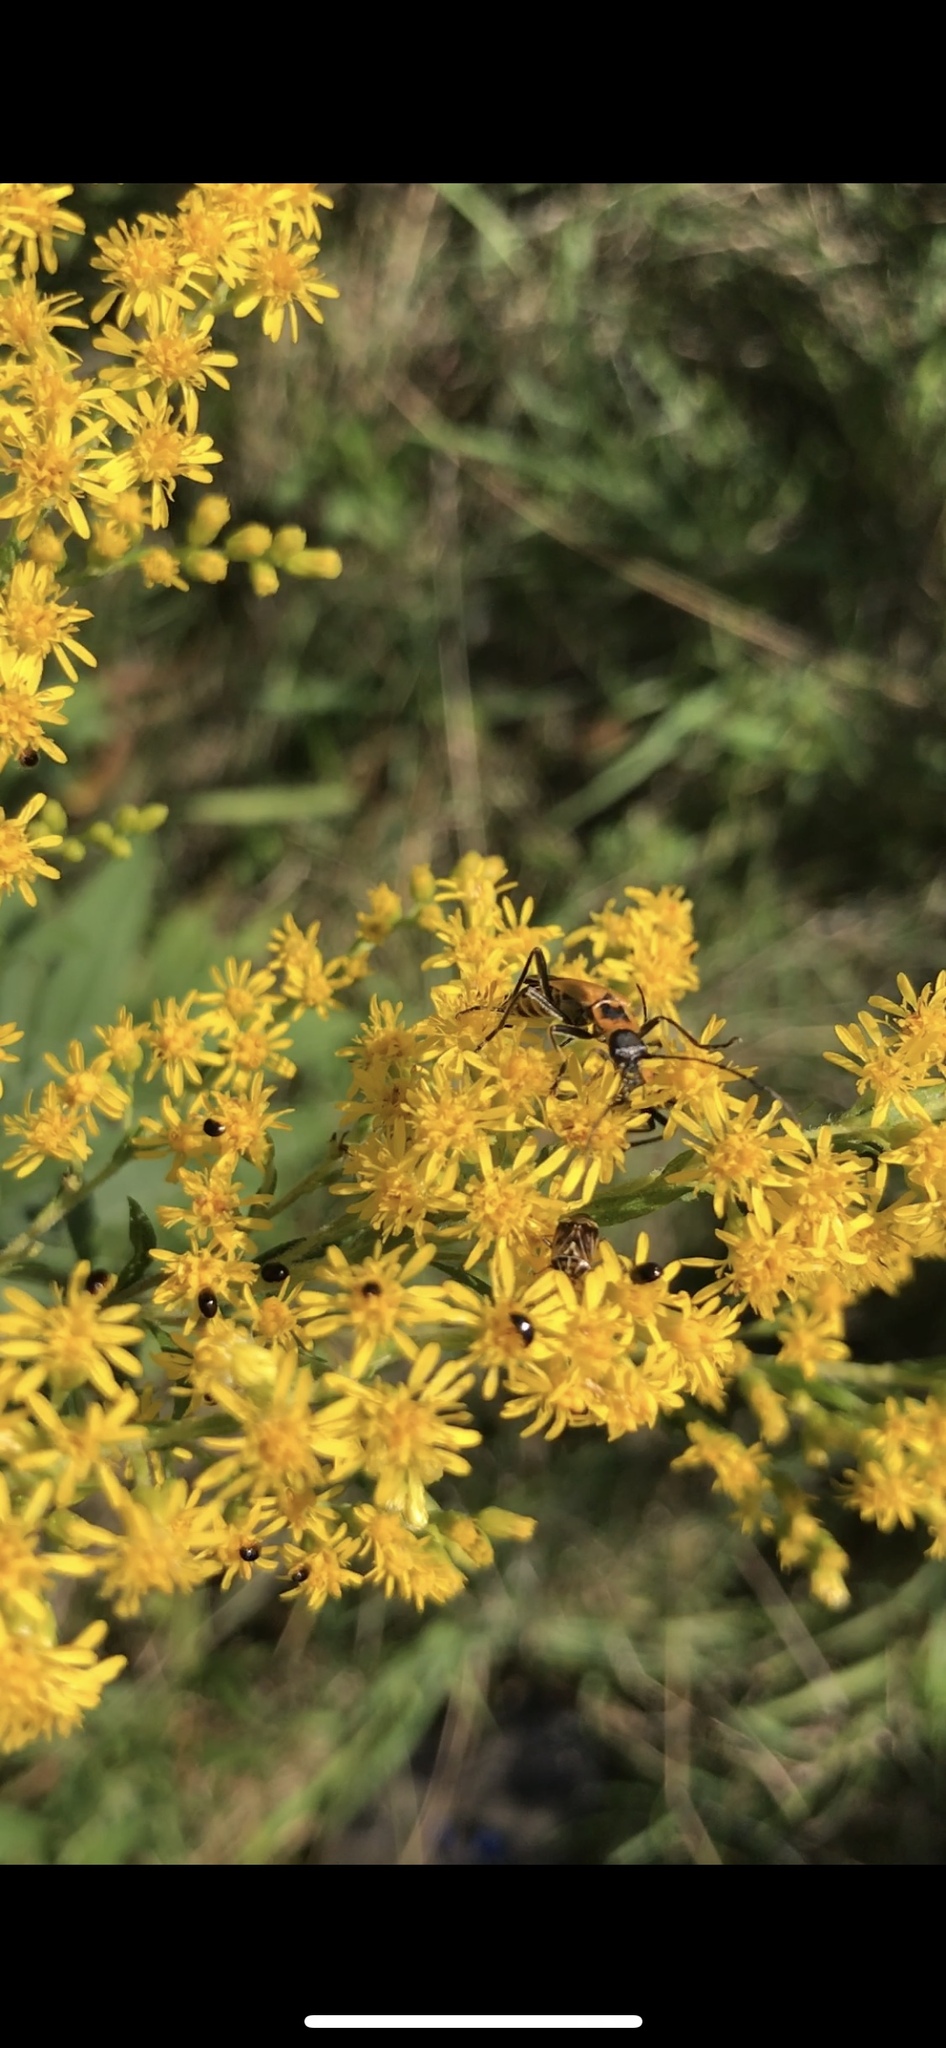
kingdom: Animalia
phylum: Arthropoda
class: Insecta
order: Coleoptera
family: Cantharidae
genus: Chauliognathus
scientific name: Chauliognathus pensylvanicus
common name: Goldenrod soldier beetle
